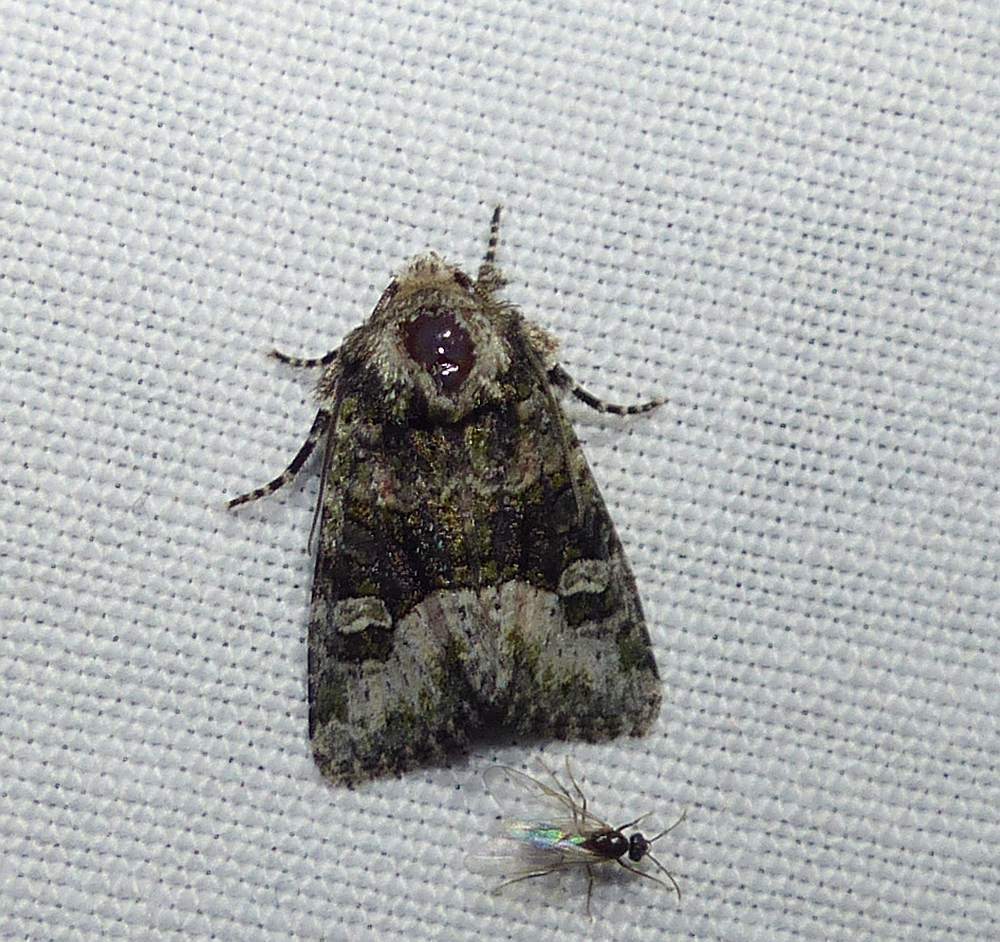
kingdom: Animalia
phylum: Arthropoda
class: Insecta
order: Lepidoptera
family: Noctuidae
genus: Lacinipolia
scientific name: Lacinipolia olivacea
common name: Olive arches moth
